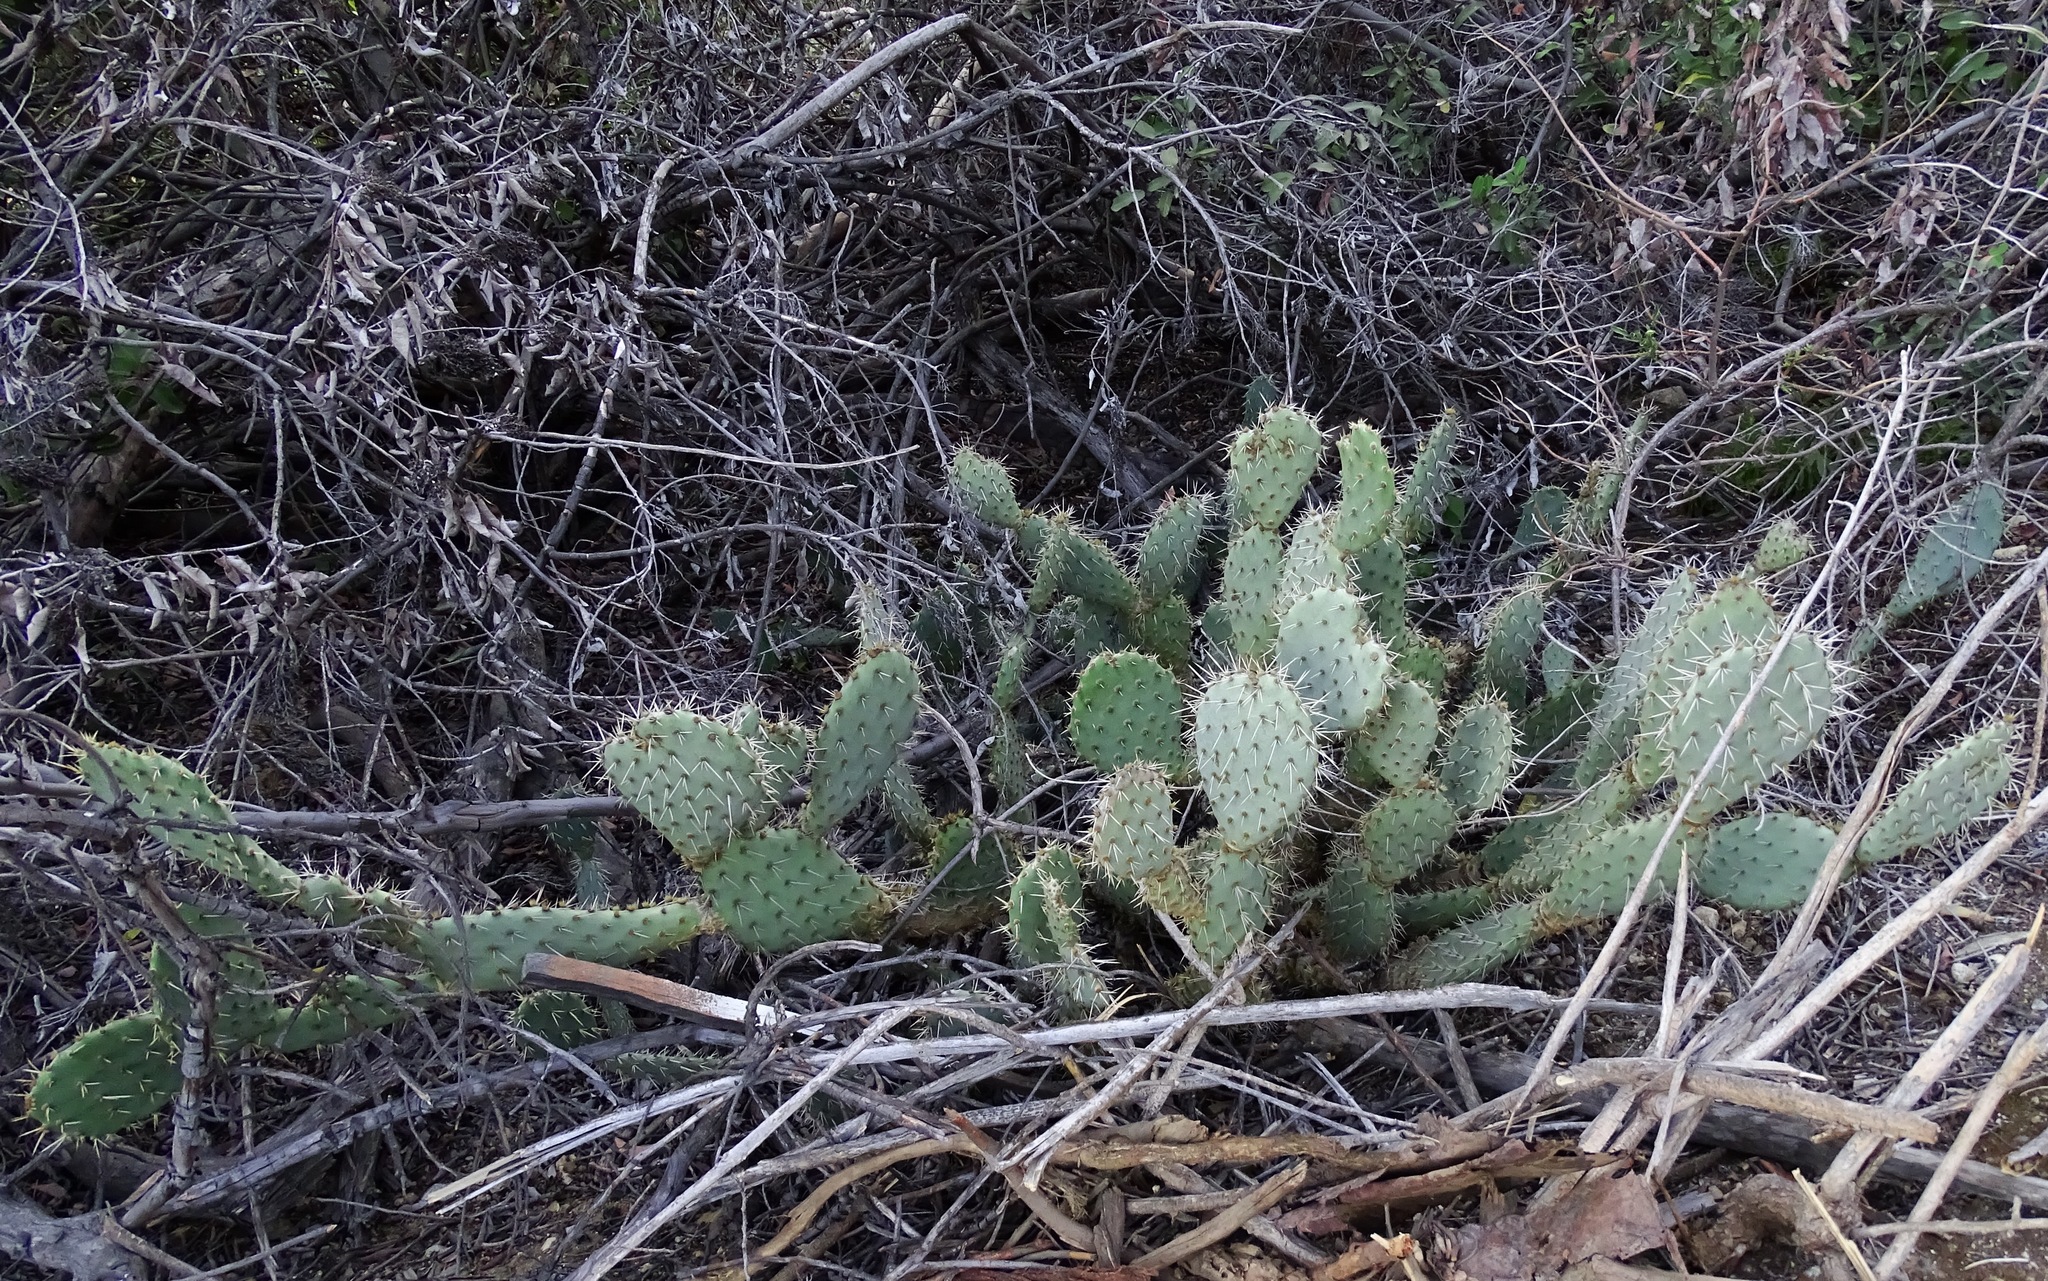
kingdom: Plantae
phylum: Tracheophyta
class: Magnoliopsida
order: Caryophyllales
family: Cactaceae
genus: Opuntia
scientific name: Opuntia littoralis
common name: Coastal prickly-pear
